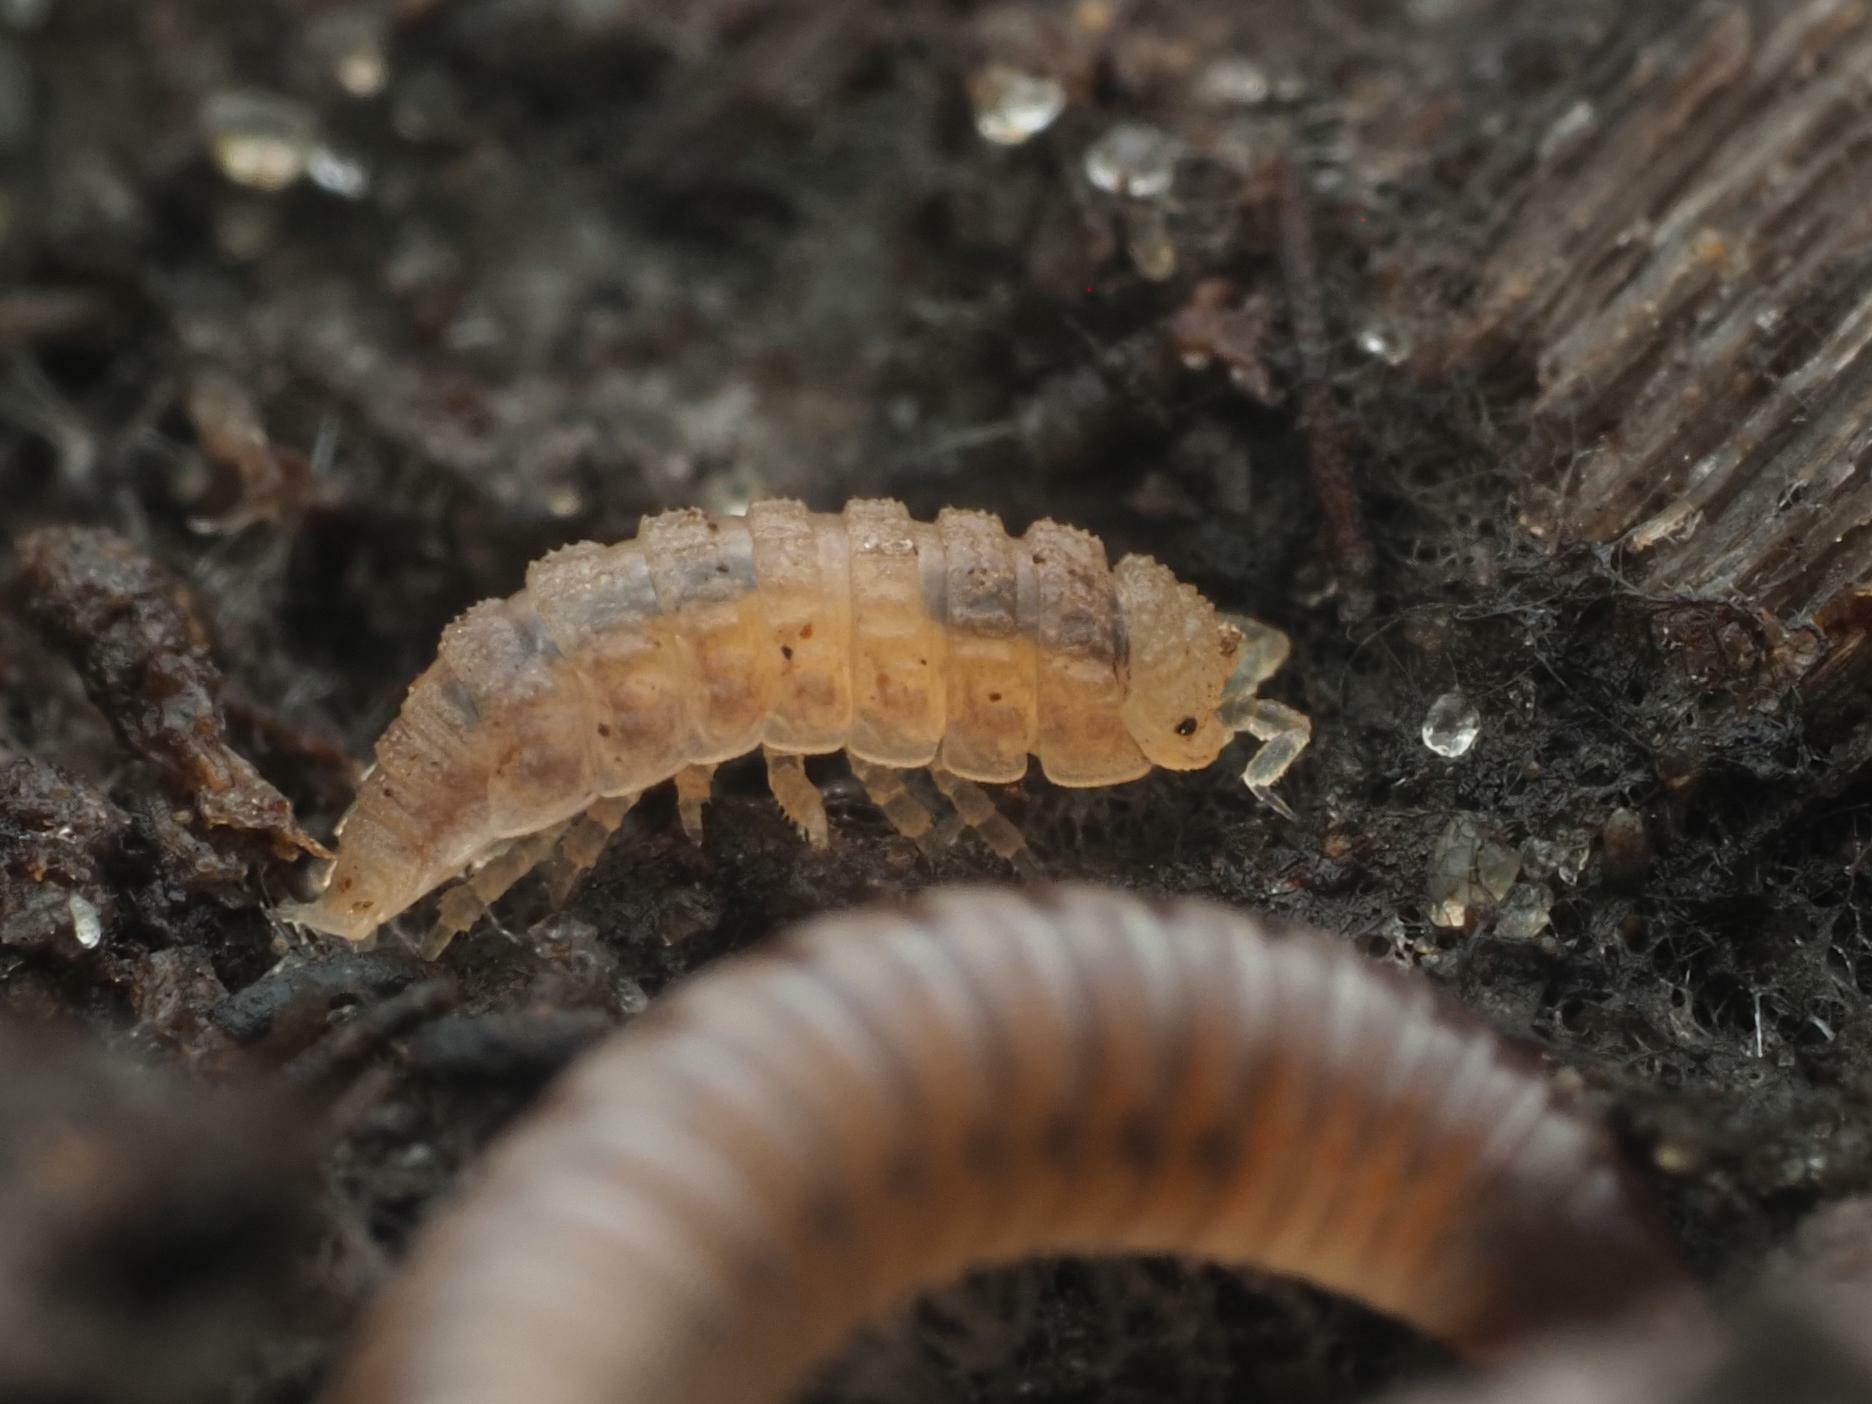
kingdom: Animalia
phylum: Arthropoda
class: Malacostraca
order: Isopoda
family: Trichoniscidae
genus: Haplophthalmus
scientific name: Haplophthalmus danicus
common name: Pillbug
